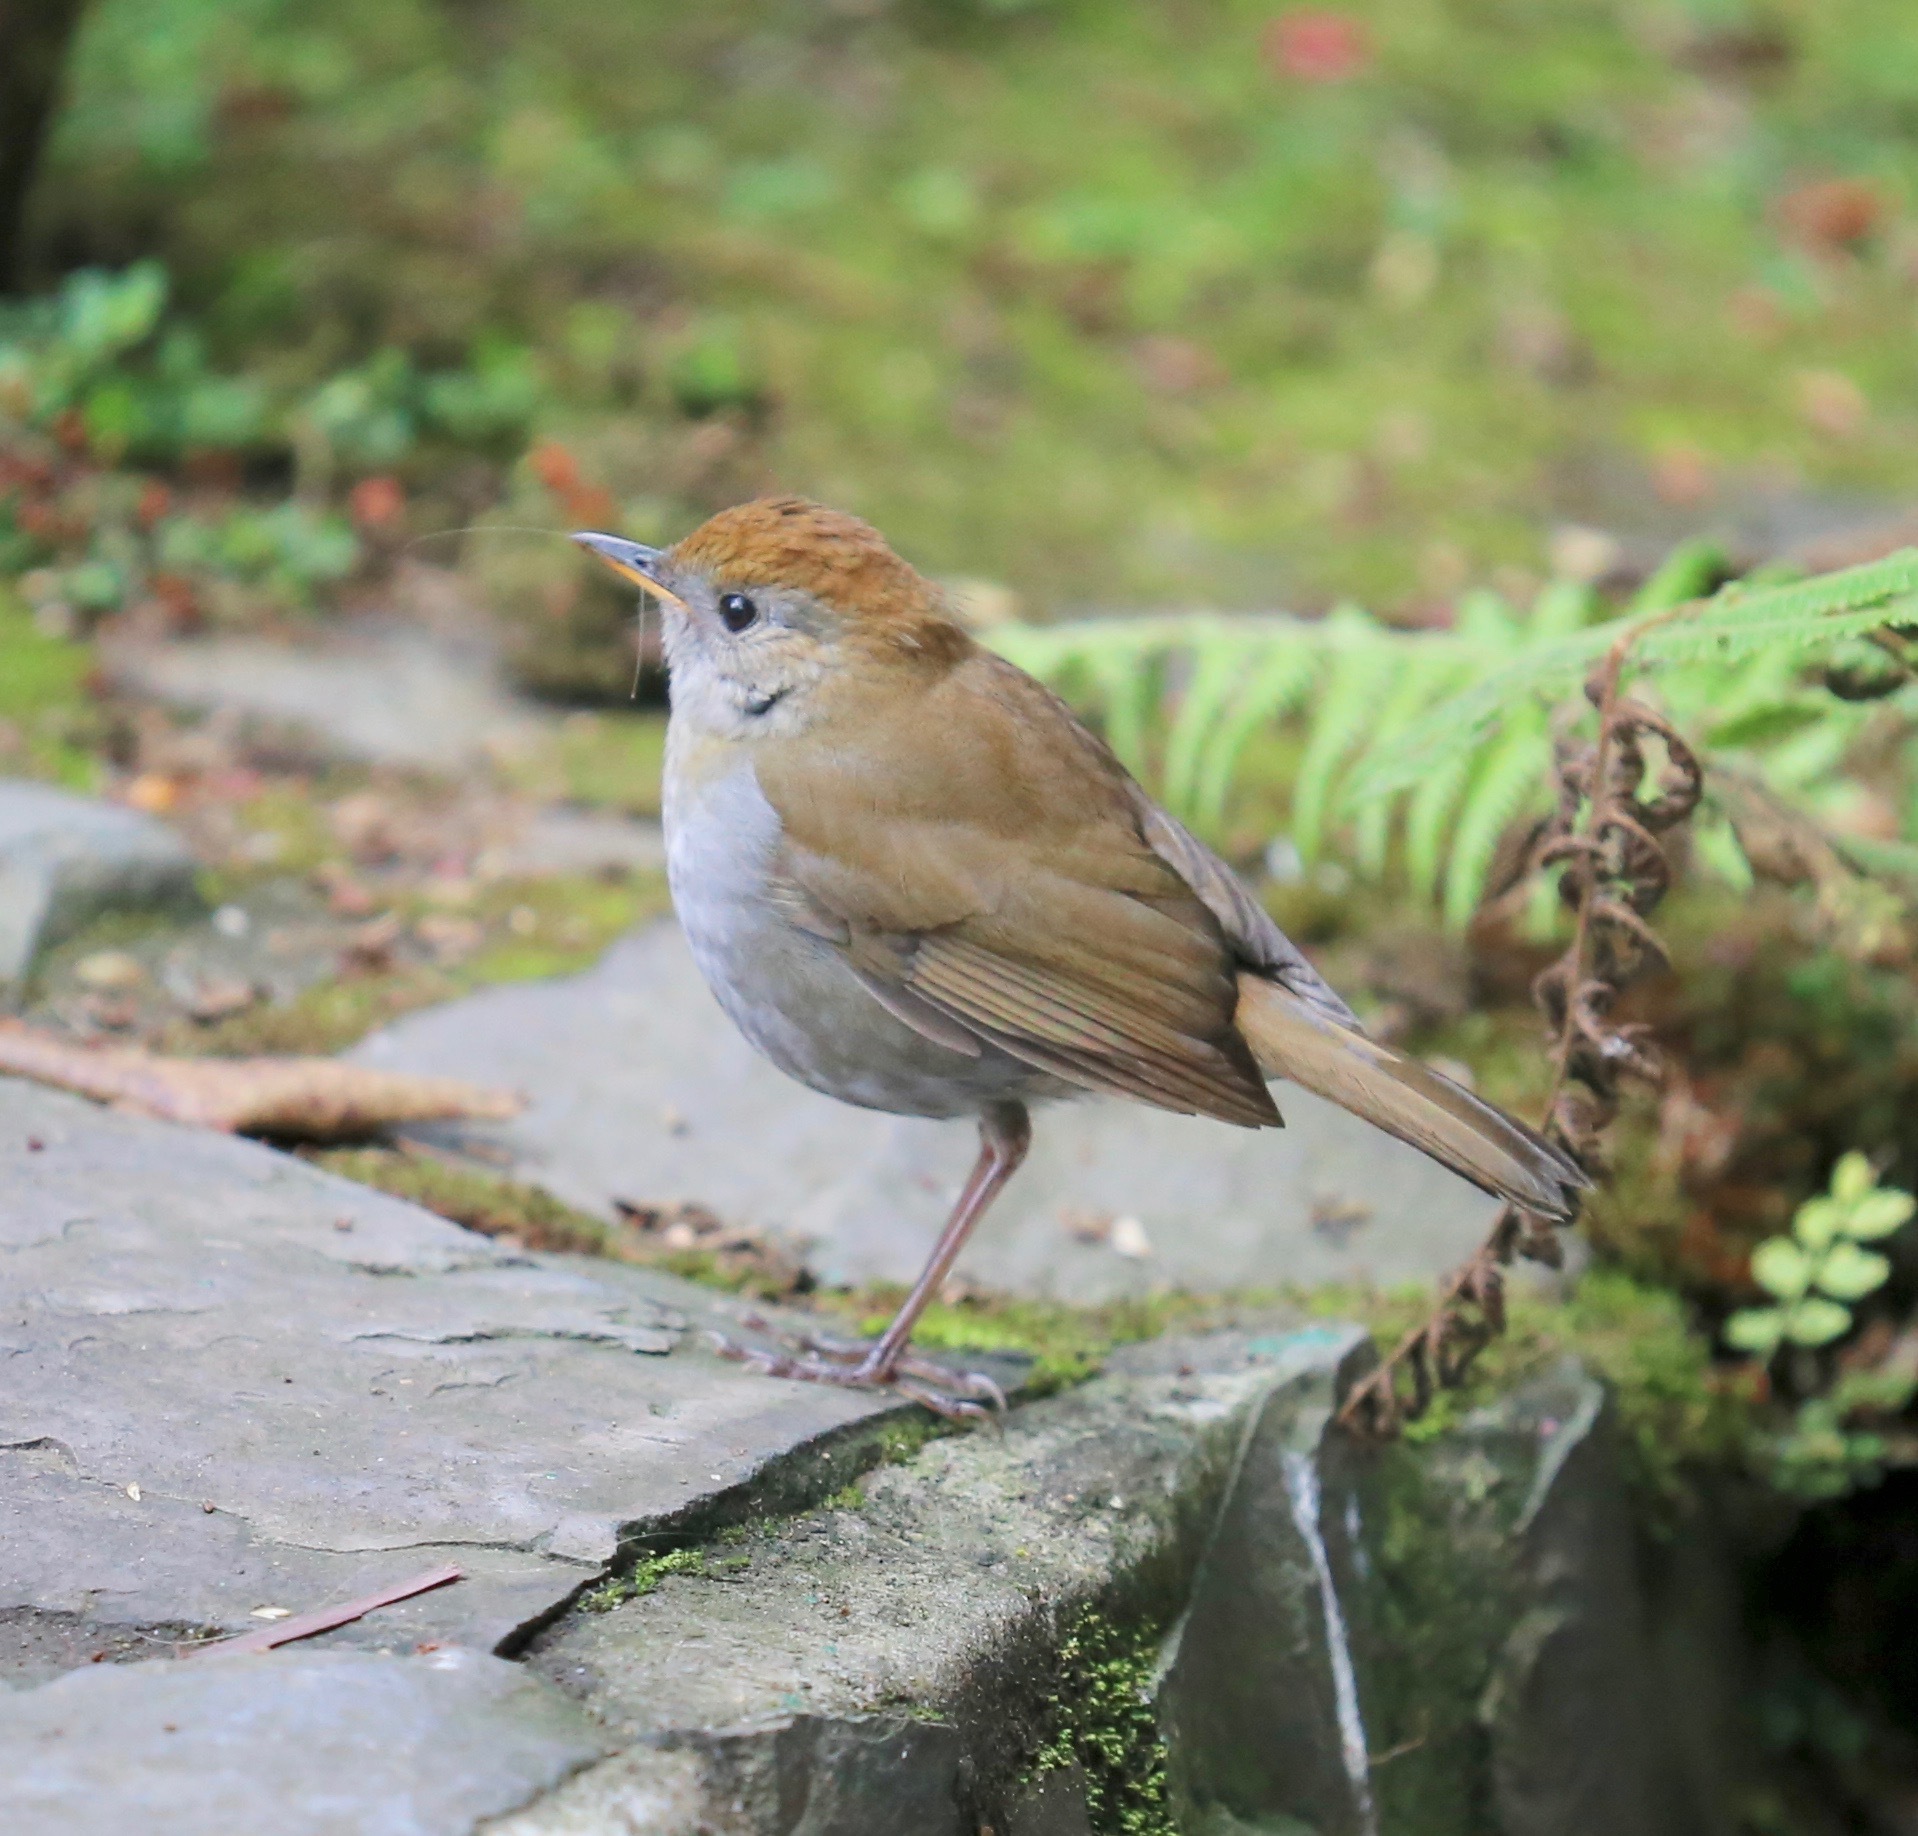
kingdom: Animalia
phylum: Chordata
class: Aves
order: Passeriformes
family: Turdidae
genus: Catharus
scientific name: Catharus frantzii
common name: Ruddy-capped nightingale-thrush
